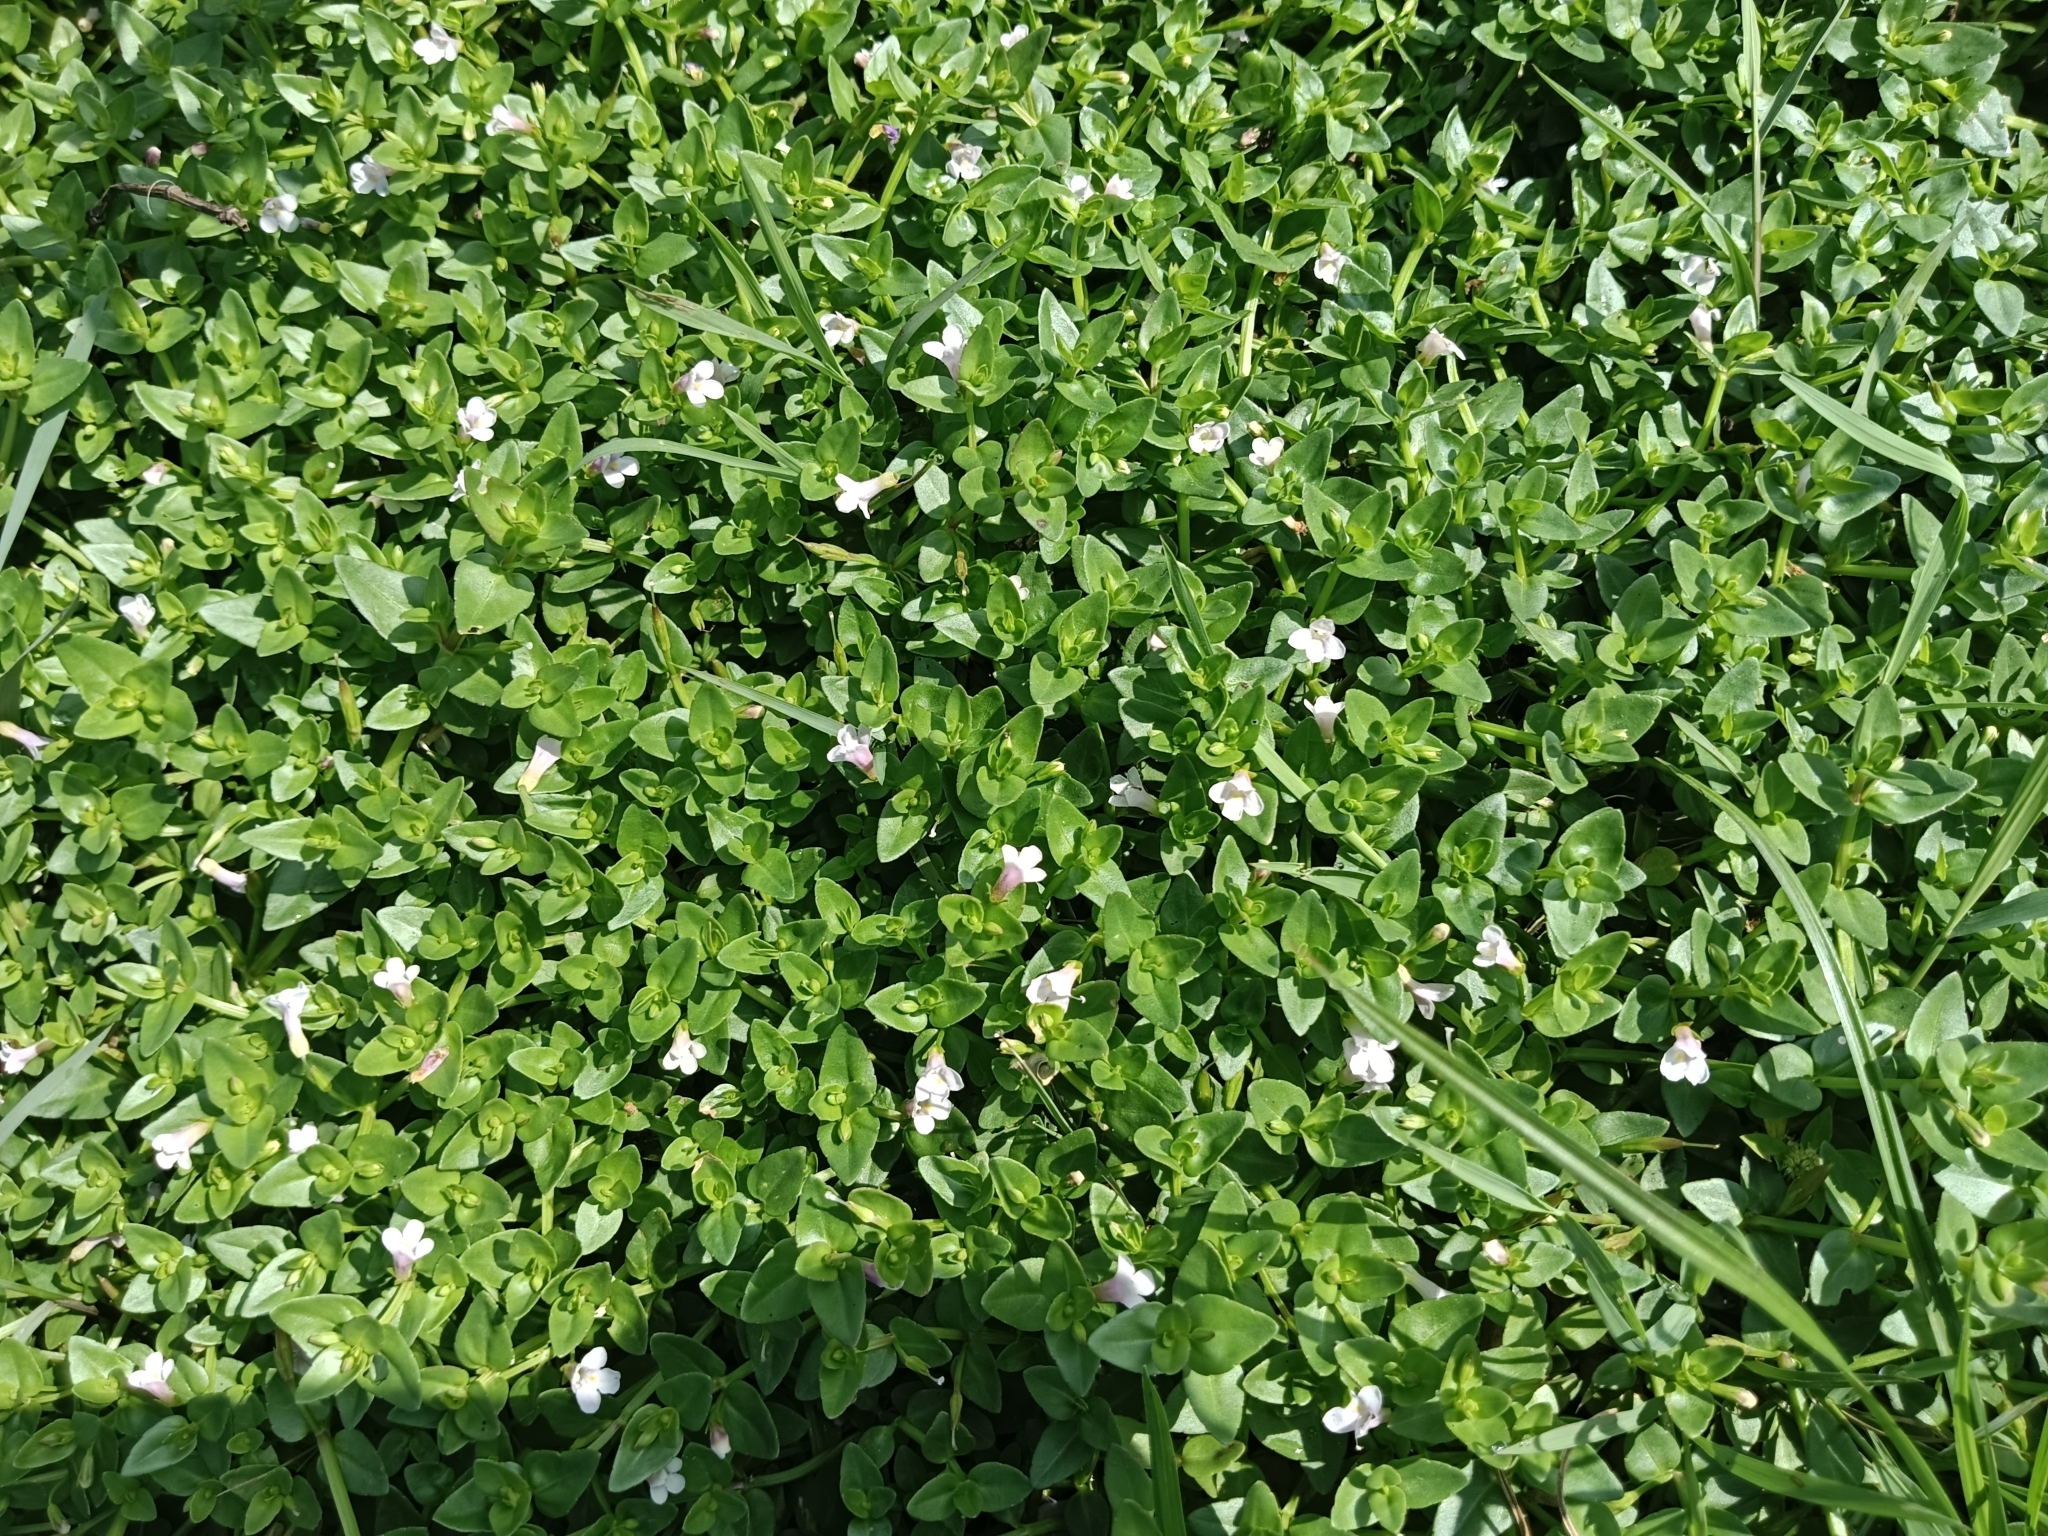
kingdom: Plantae
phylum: Tracheophyta
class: Magnoliopsida
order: Lamiales
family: Linderniaceae
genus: Torenia
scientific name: Torenia anagallis
